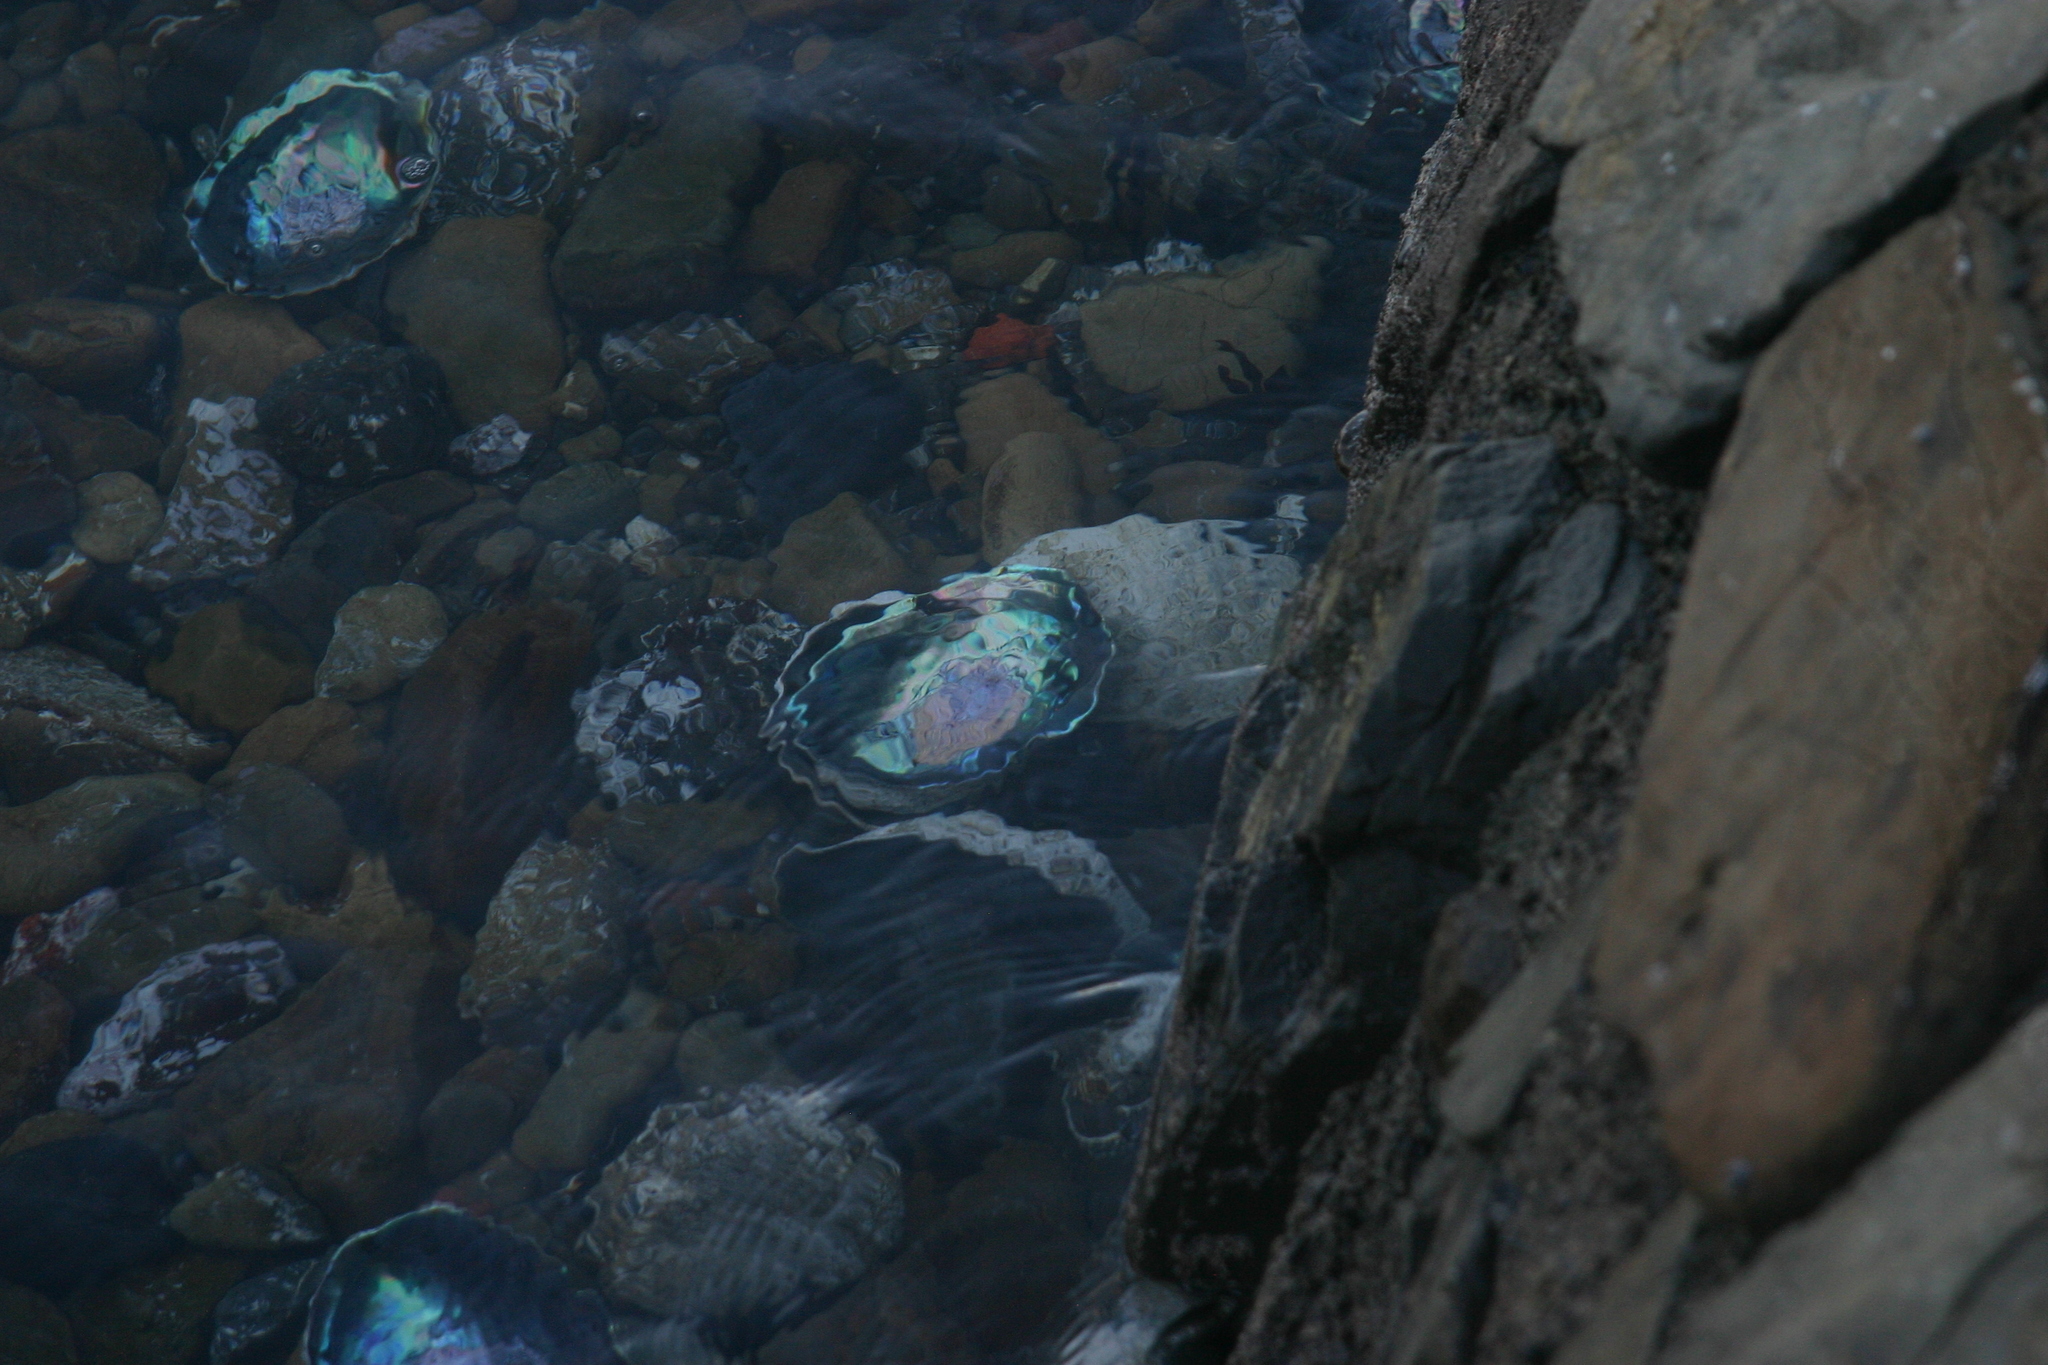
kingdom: Animalia
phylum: Mollusca
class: Gastropoda
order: Lepetellida
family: Haliotidae
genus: Haliotis
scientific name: Haliotis iris
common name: Abalone
